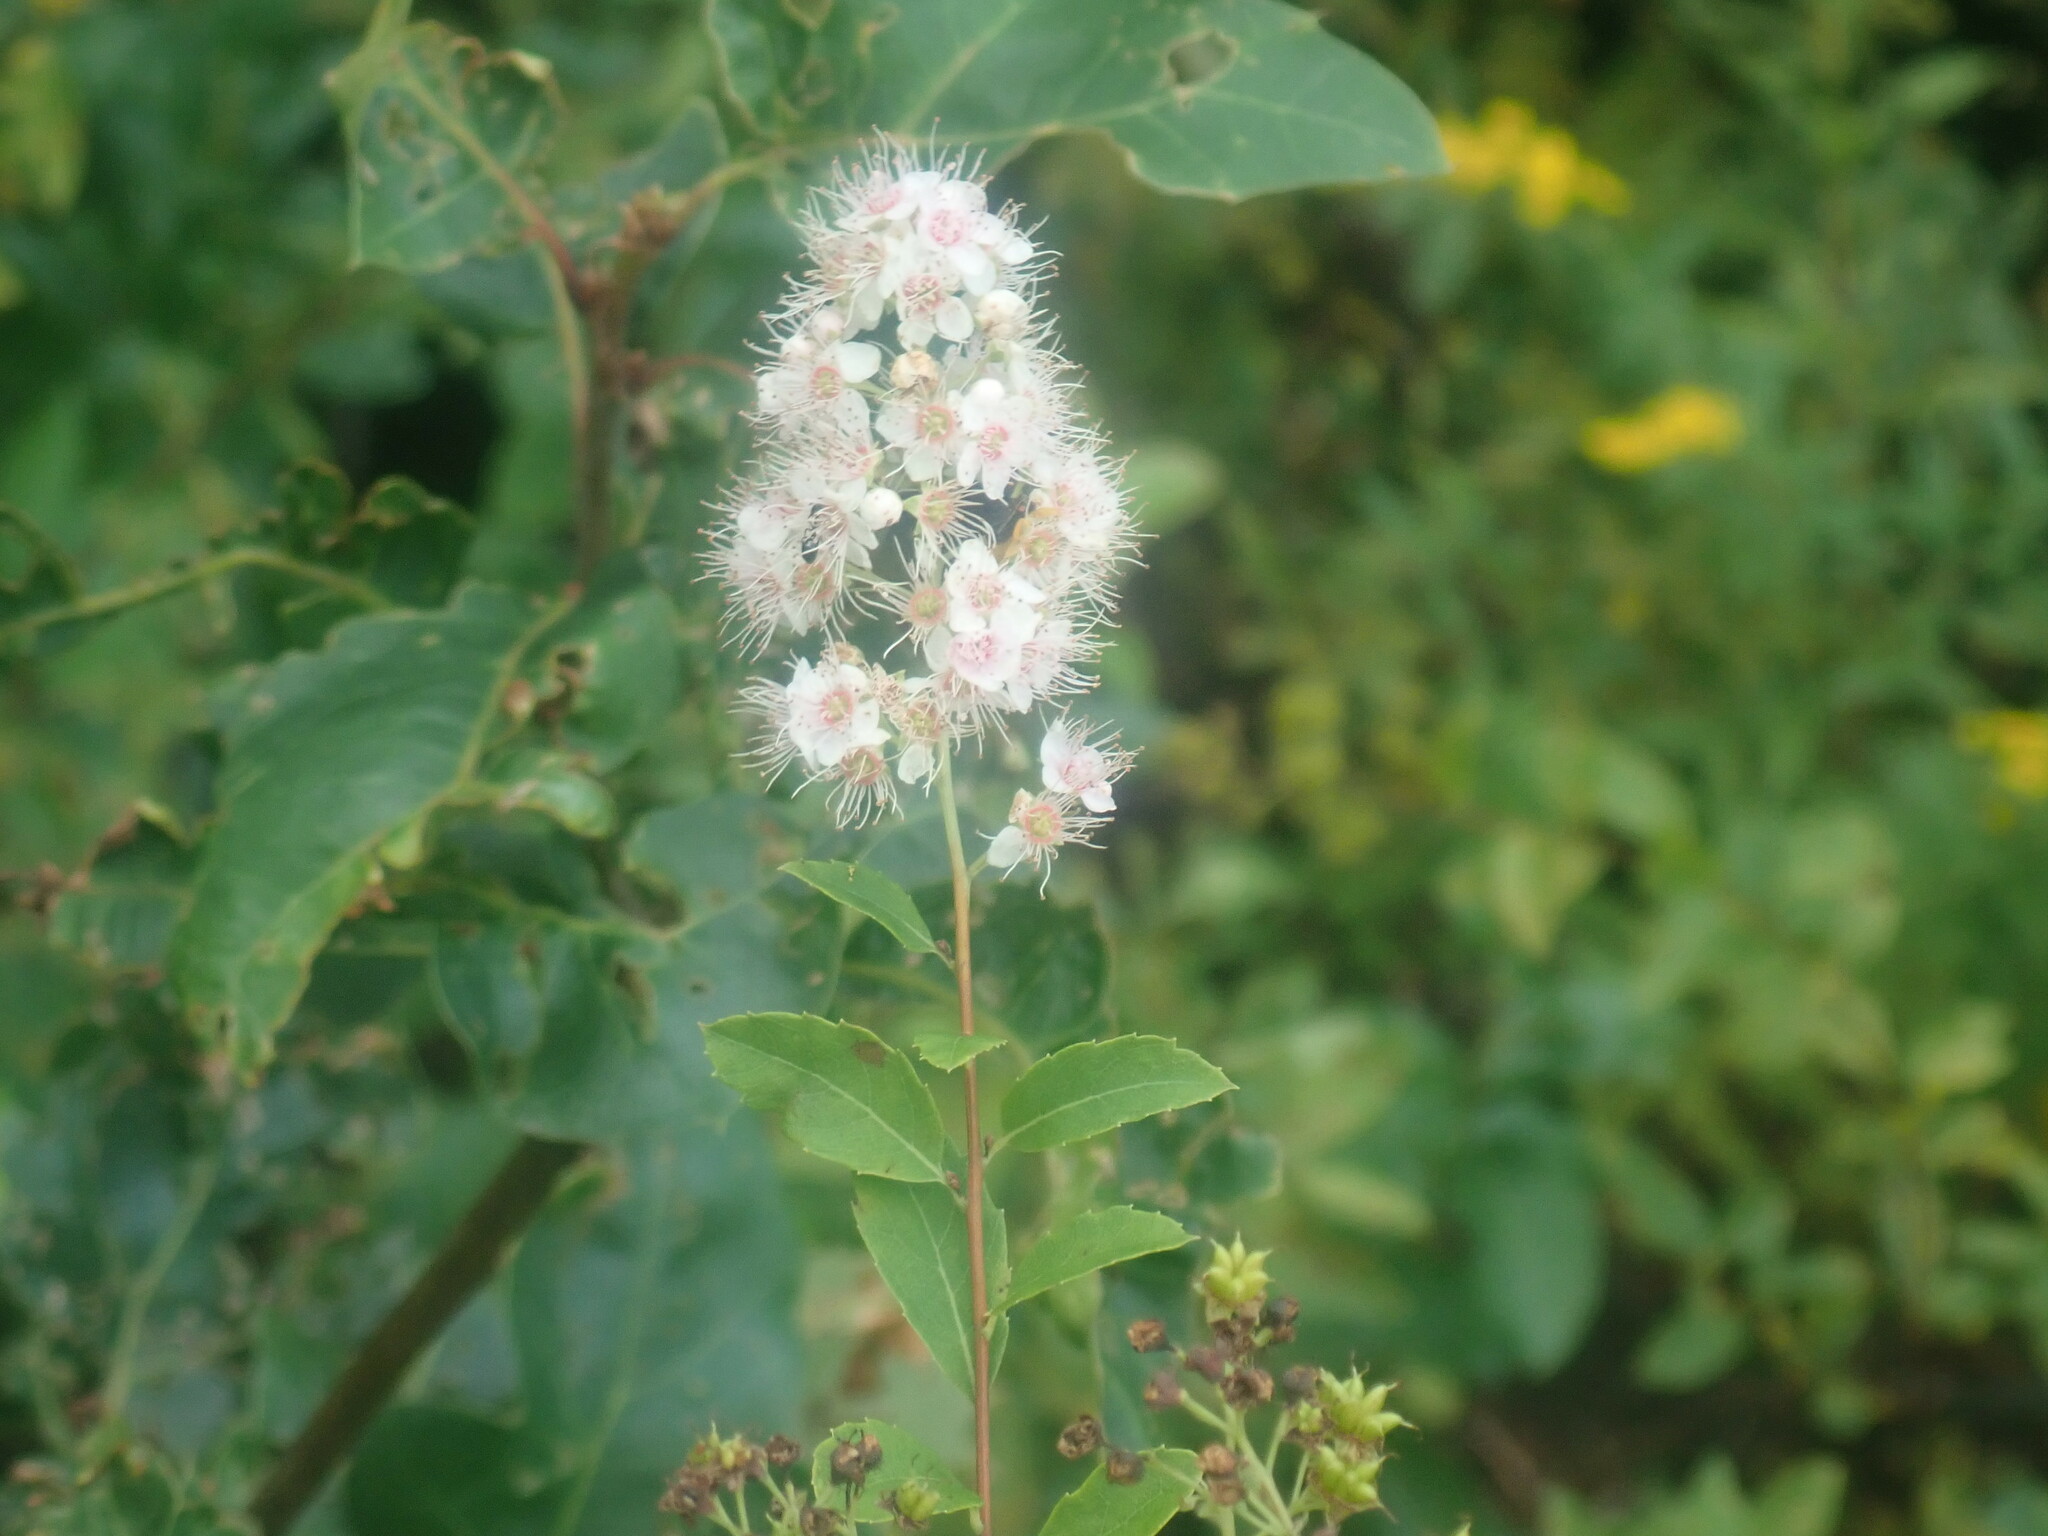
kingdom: Plantae
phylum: Tracheophyta
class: Magnoliopsida
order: Rosales
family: Rosaceae
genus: Spiraea
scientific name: Spiraea alba
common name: Pale bridewort
